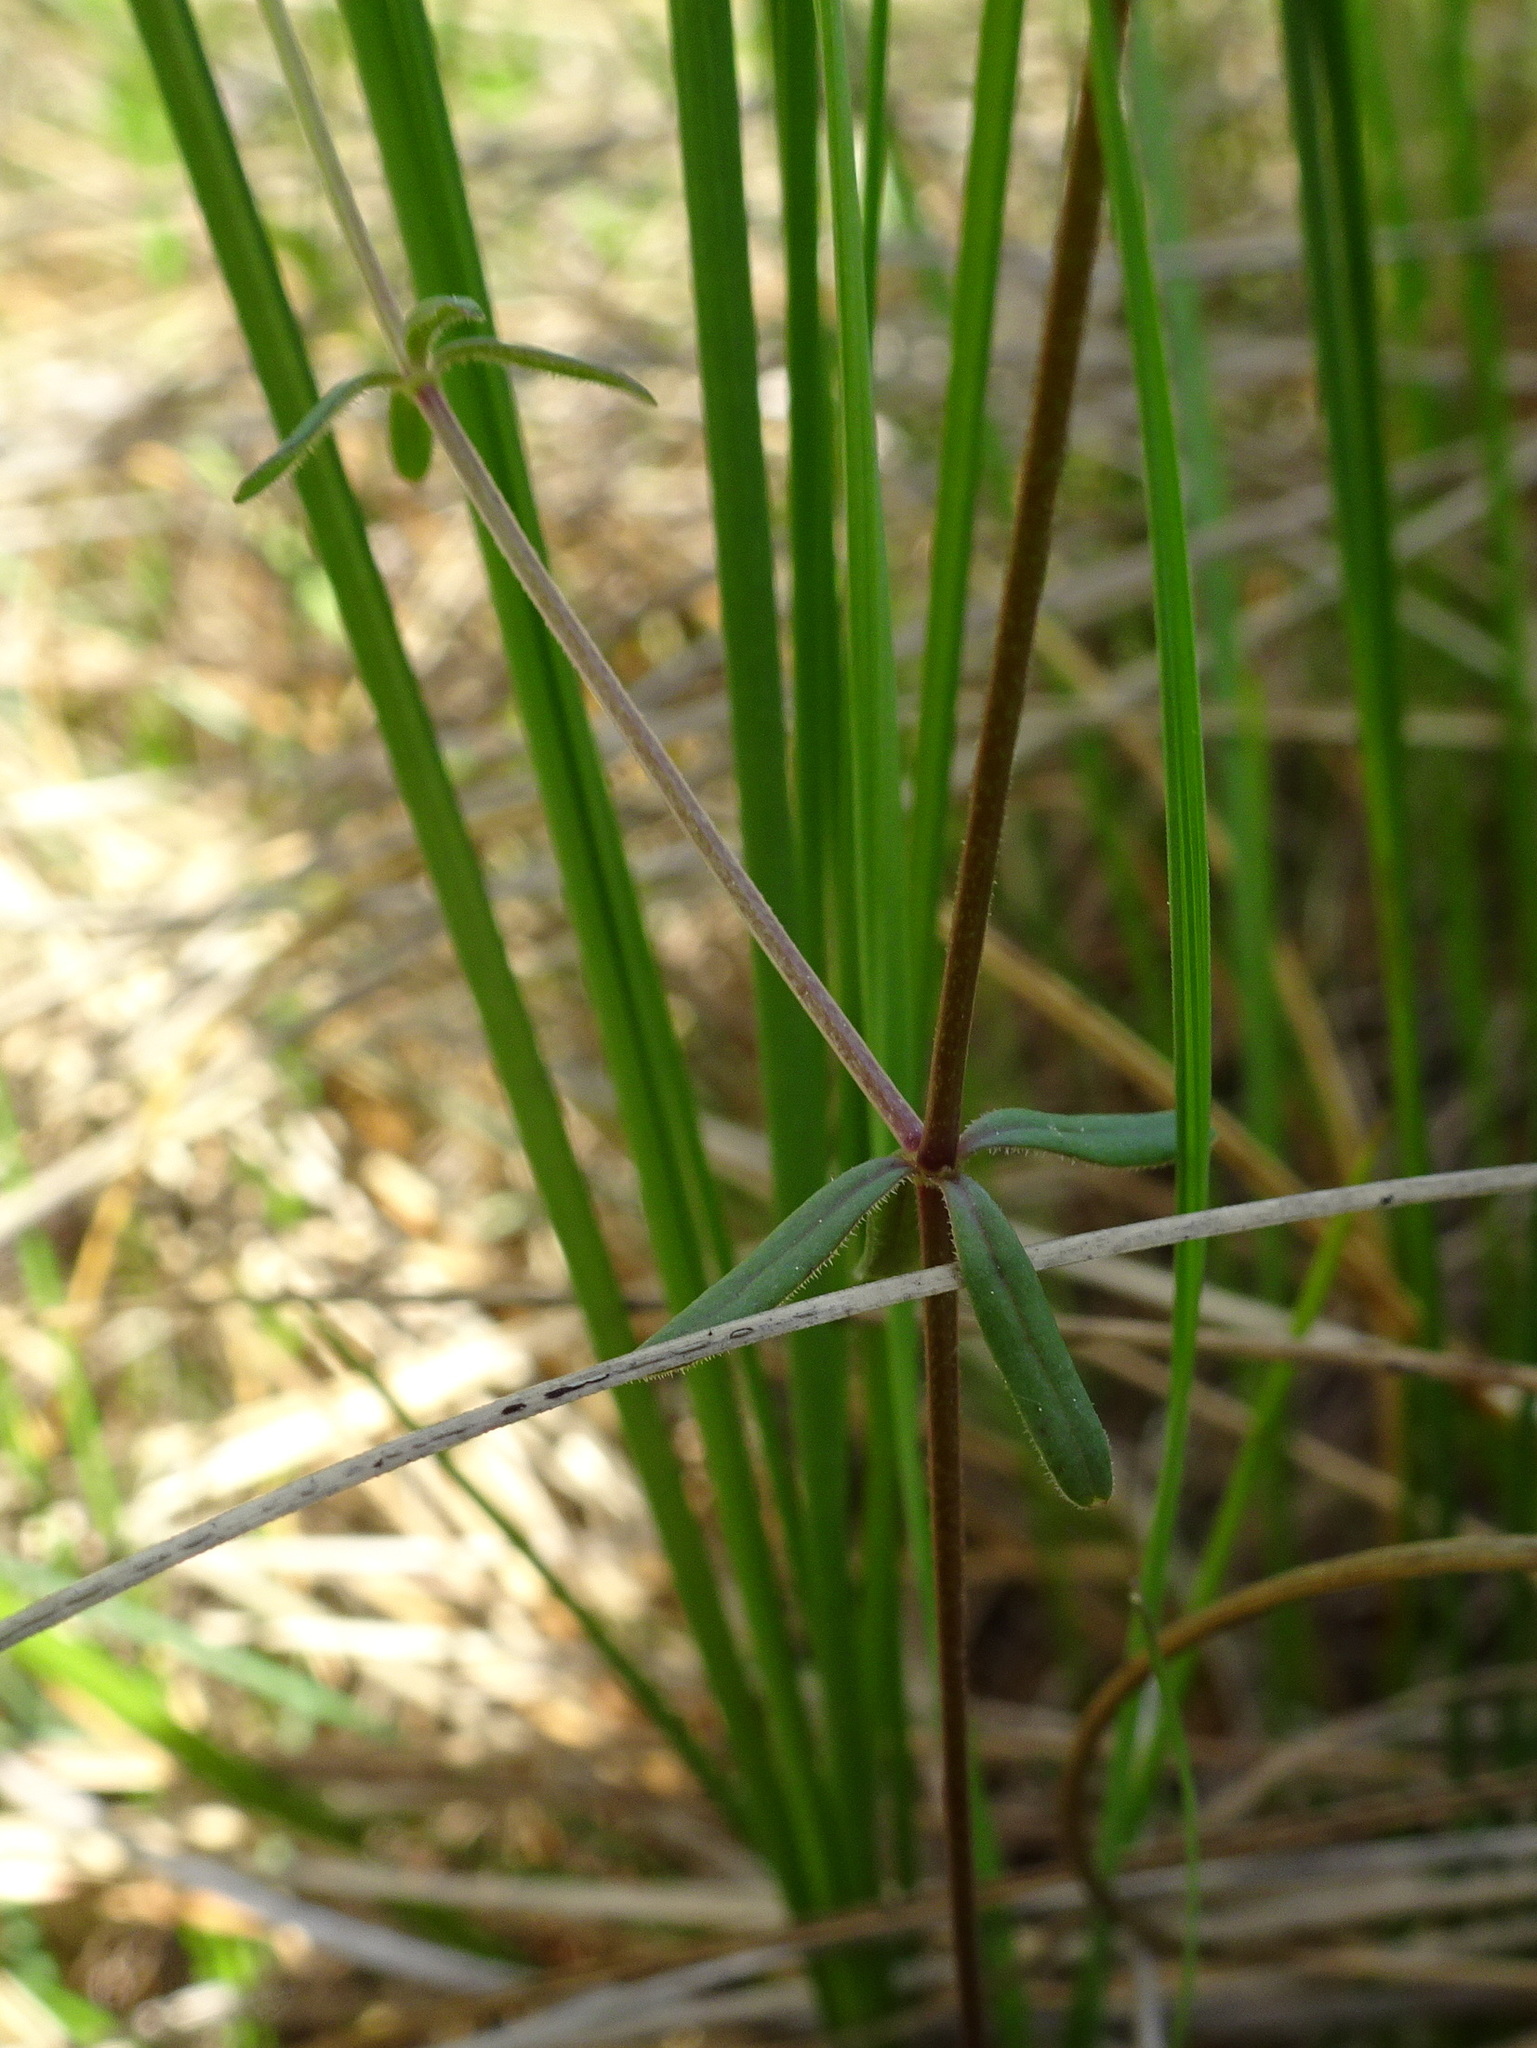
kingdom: Plantae
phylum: Tracheophyta
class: Magnoliopsida
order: Gentianales
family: Rubiaceae
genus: Galium
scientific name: Galium labradoricum
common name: Labrador bedstraw
